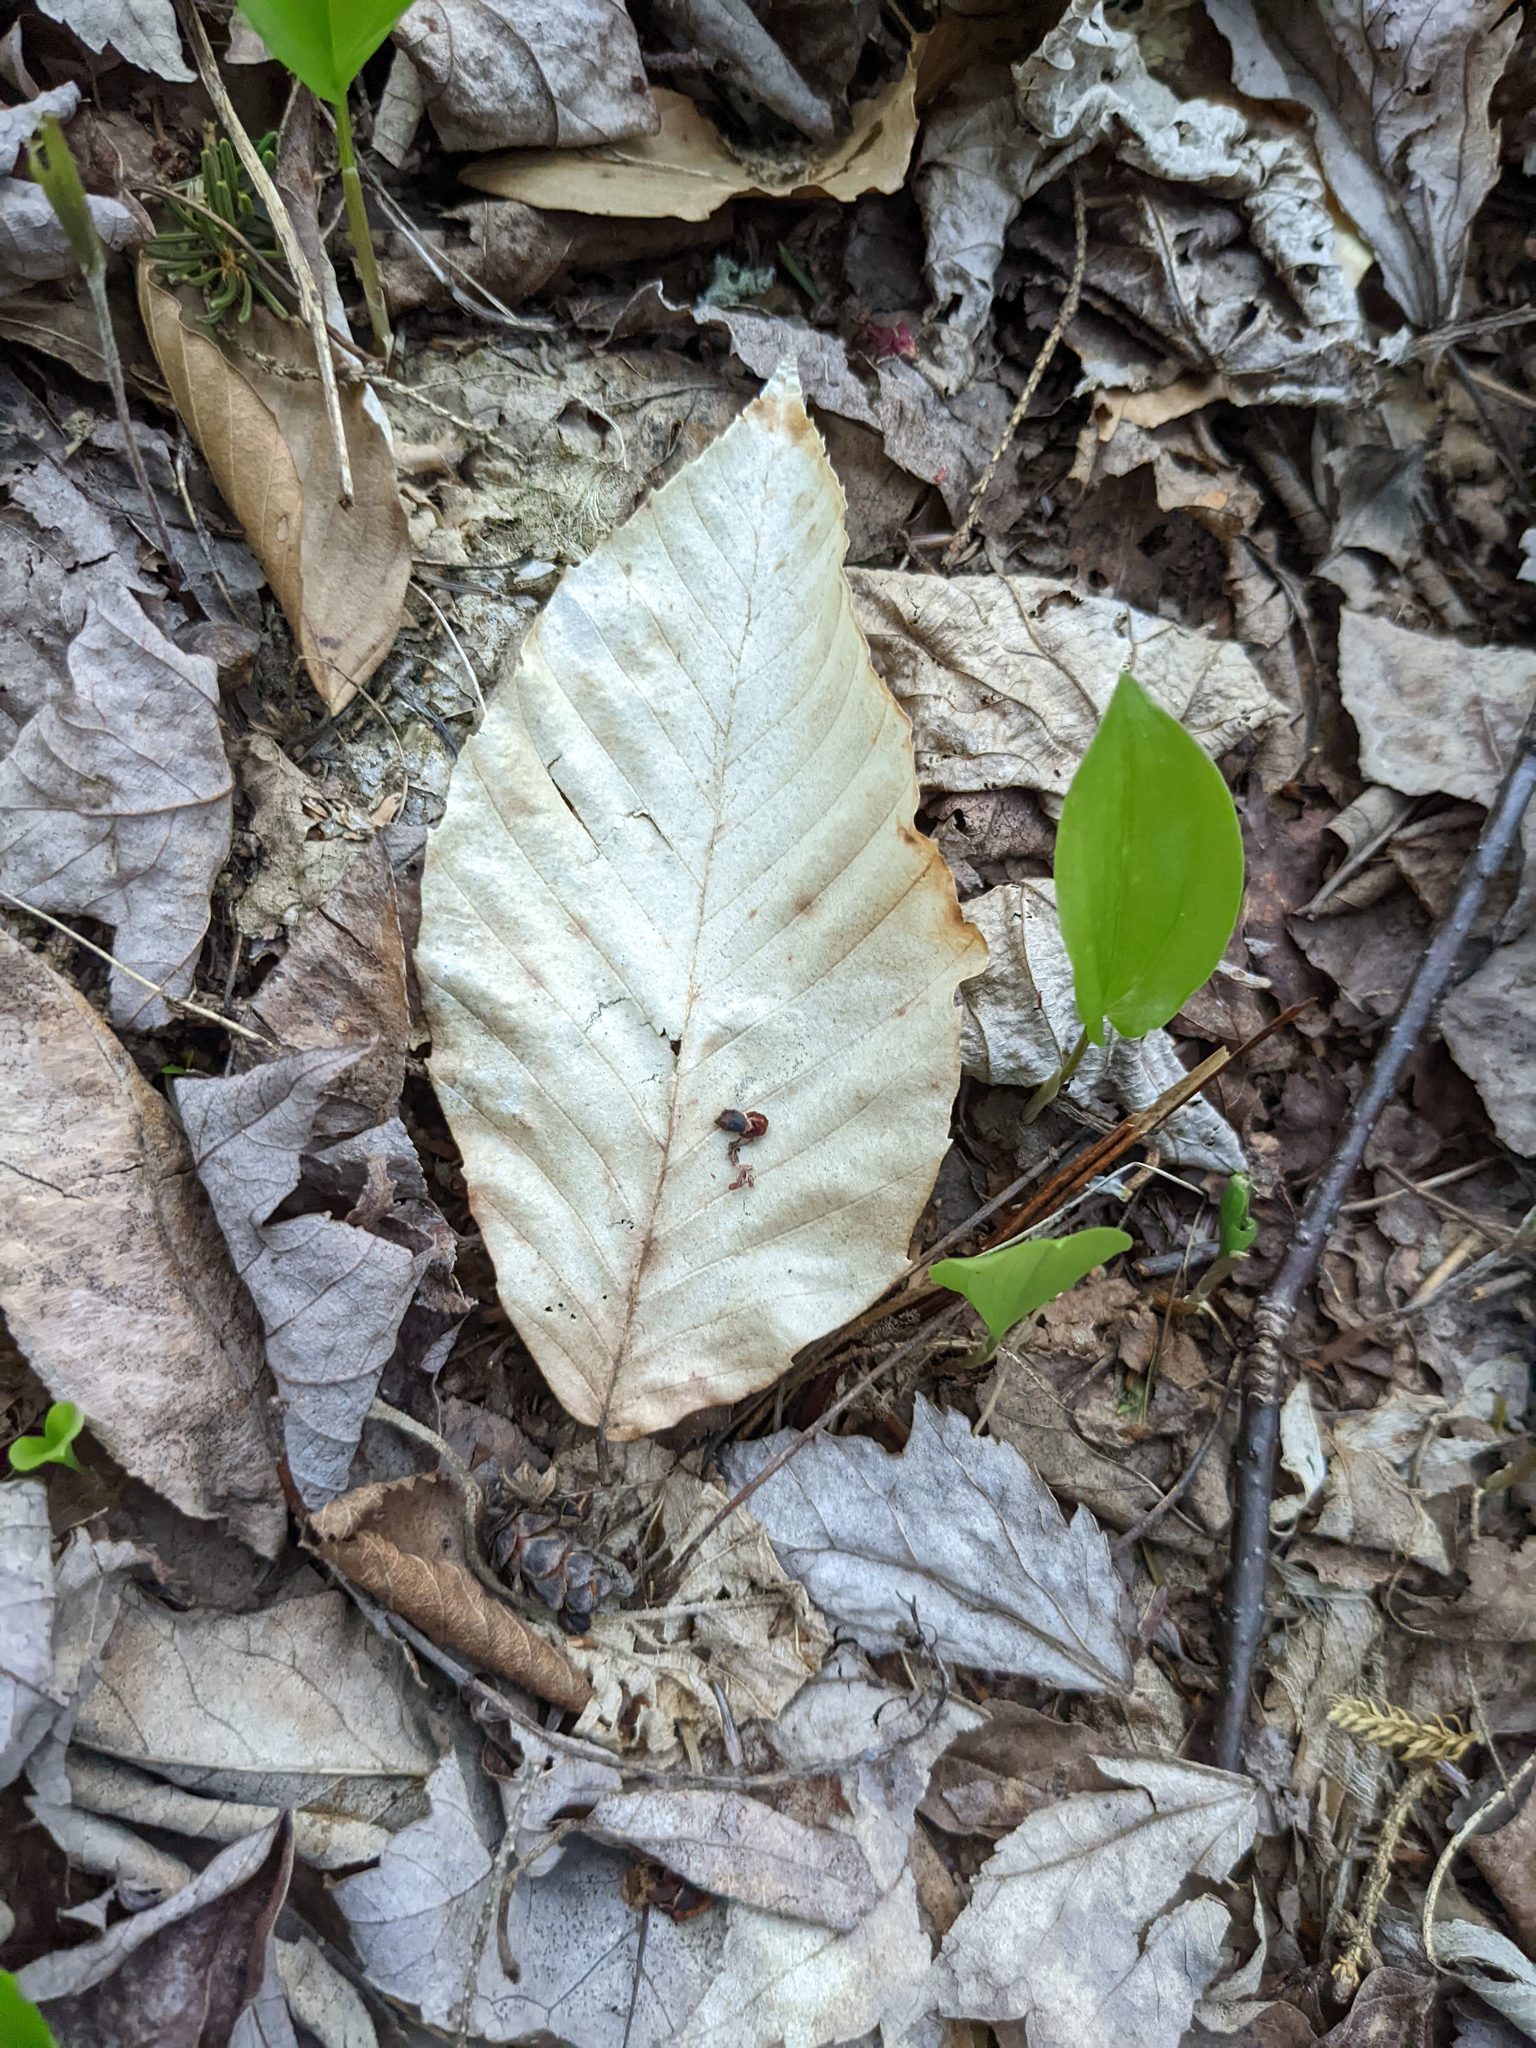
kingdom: Plantae
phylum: Tracheophyta
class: Magnoliopsida
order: Fagales
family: Fagaceae
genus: Fagus
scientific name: Fagus grandifolia
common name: American beech
